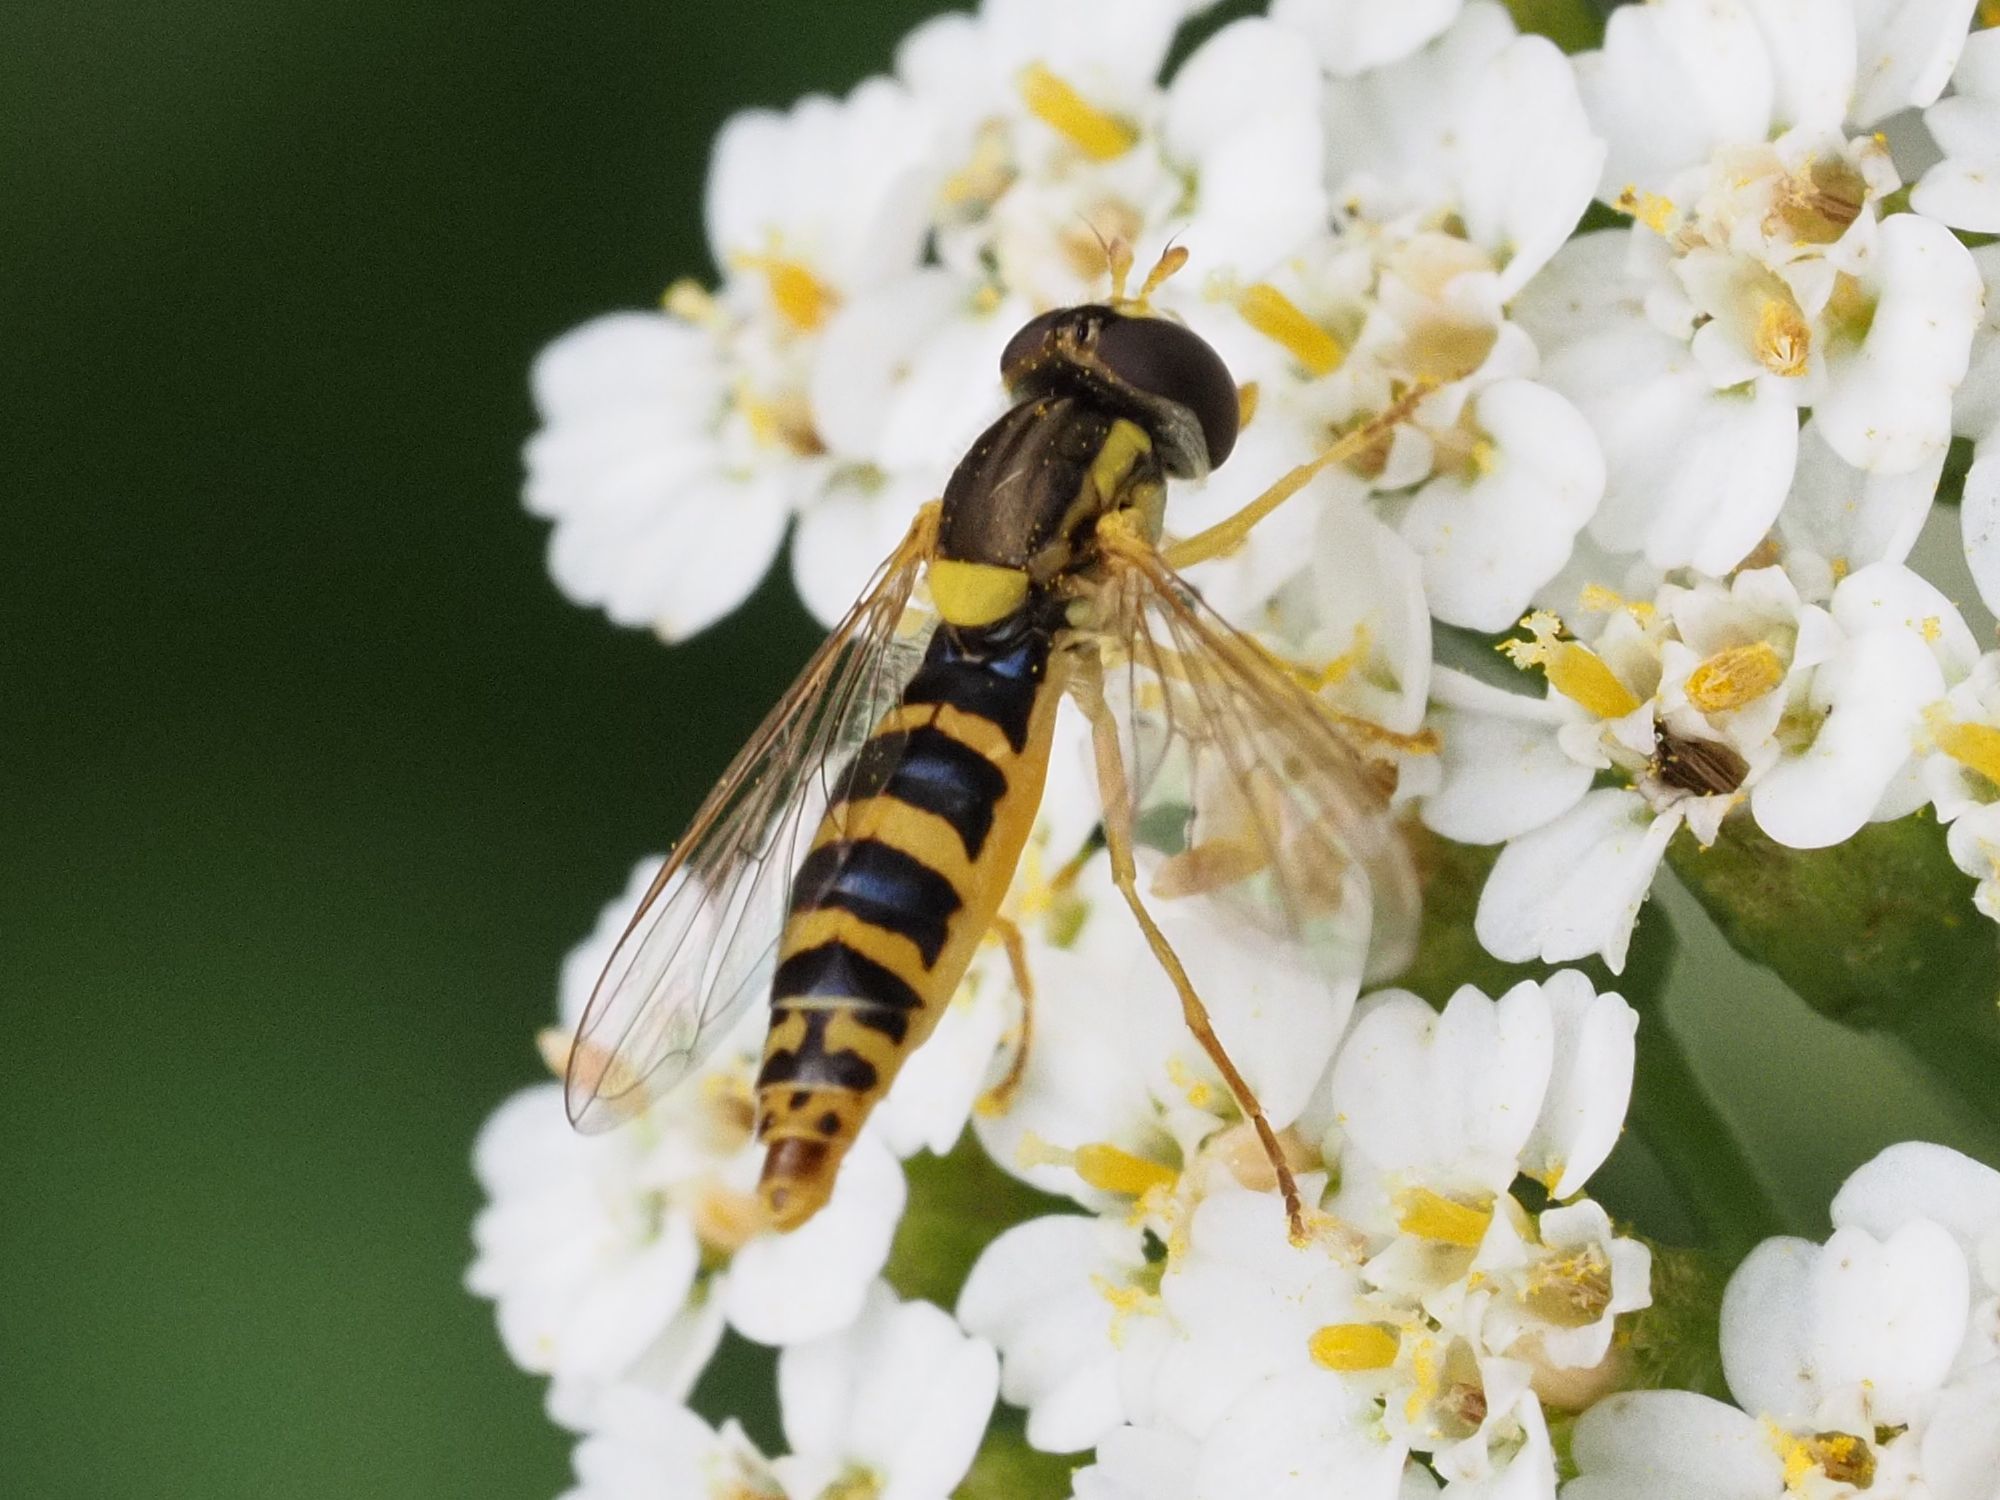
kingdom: Animalia
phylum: Arthropoda
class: Insecta
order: Diptera
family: Syrphidae
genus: Sphaerophoria
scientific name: Sphaerophoria
